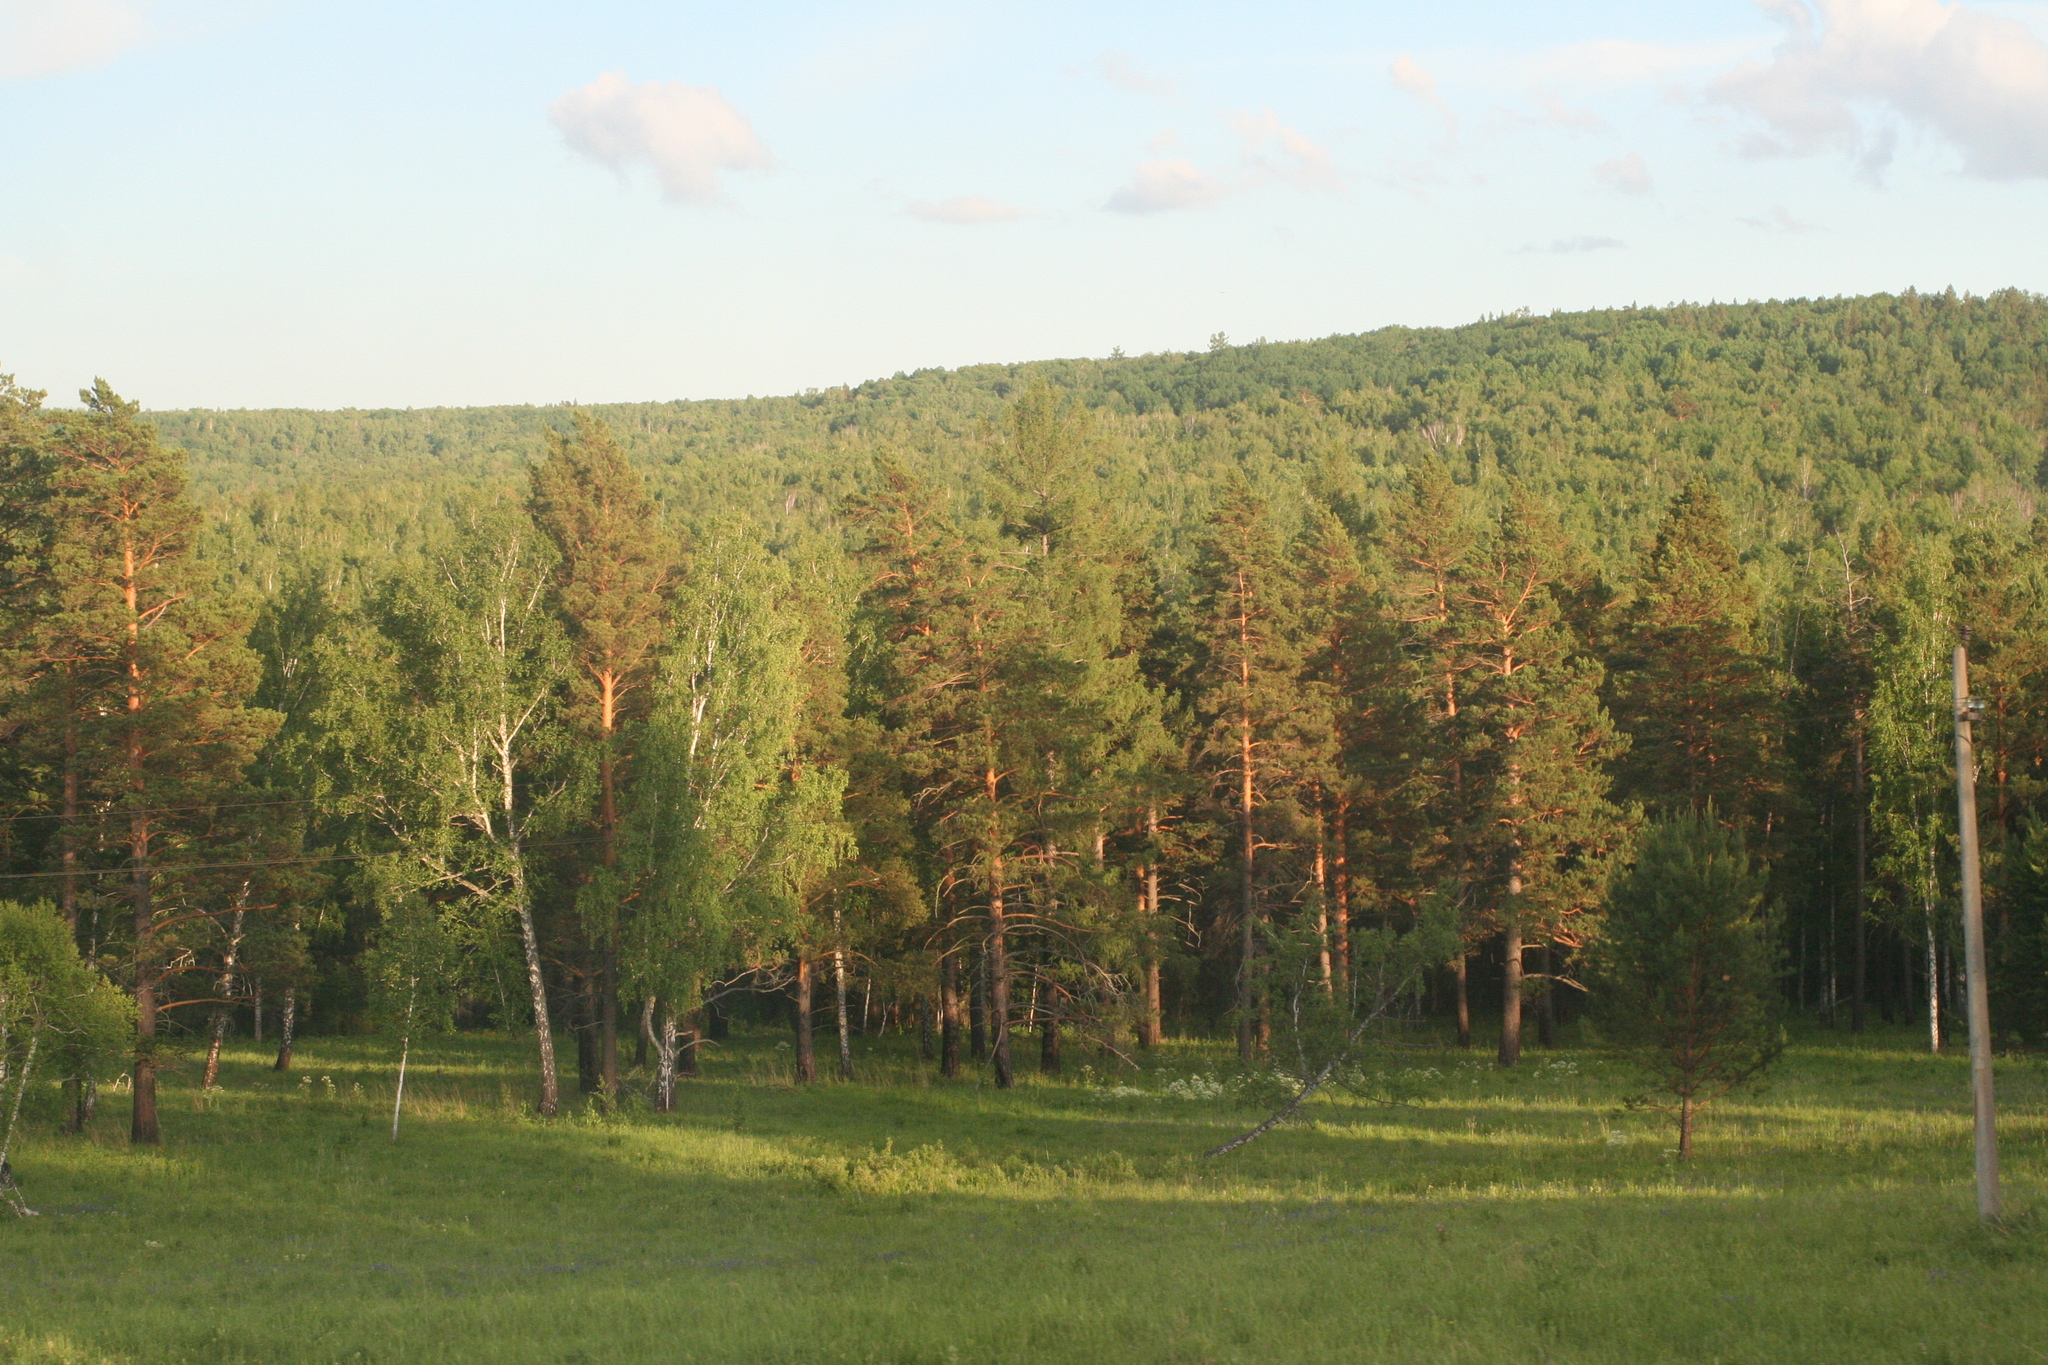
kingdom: Plantae
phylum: Tracheophyta
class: Pinopsida
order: Pinales
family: Pinaceae
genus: Pinus
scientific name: Pinus sylvestris
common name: Scots pine
